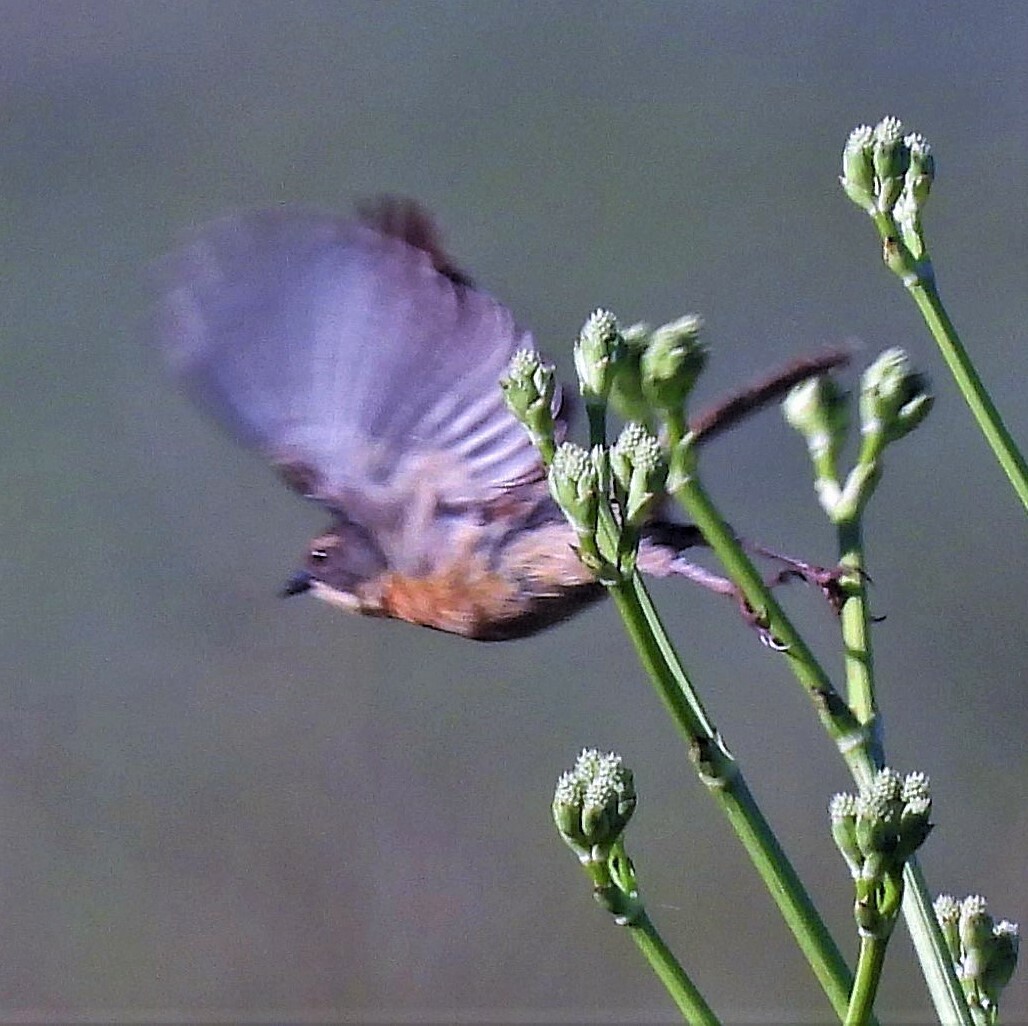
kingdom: Animalia
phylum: Chordata
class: Aves
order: Passeriformes
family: Thraupidae
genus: Donacospiza
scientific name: Donacospiza albifrons
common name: Long-tailed reed finch
